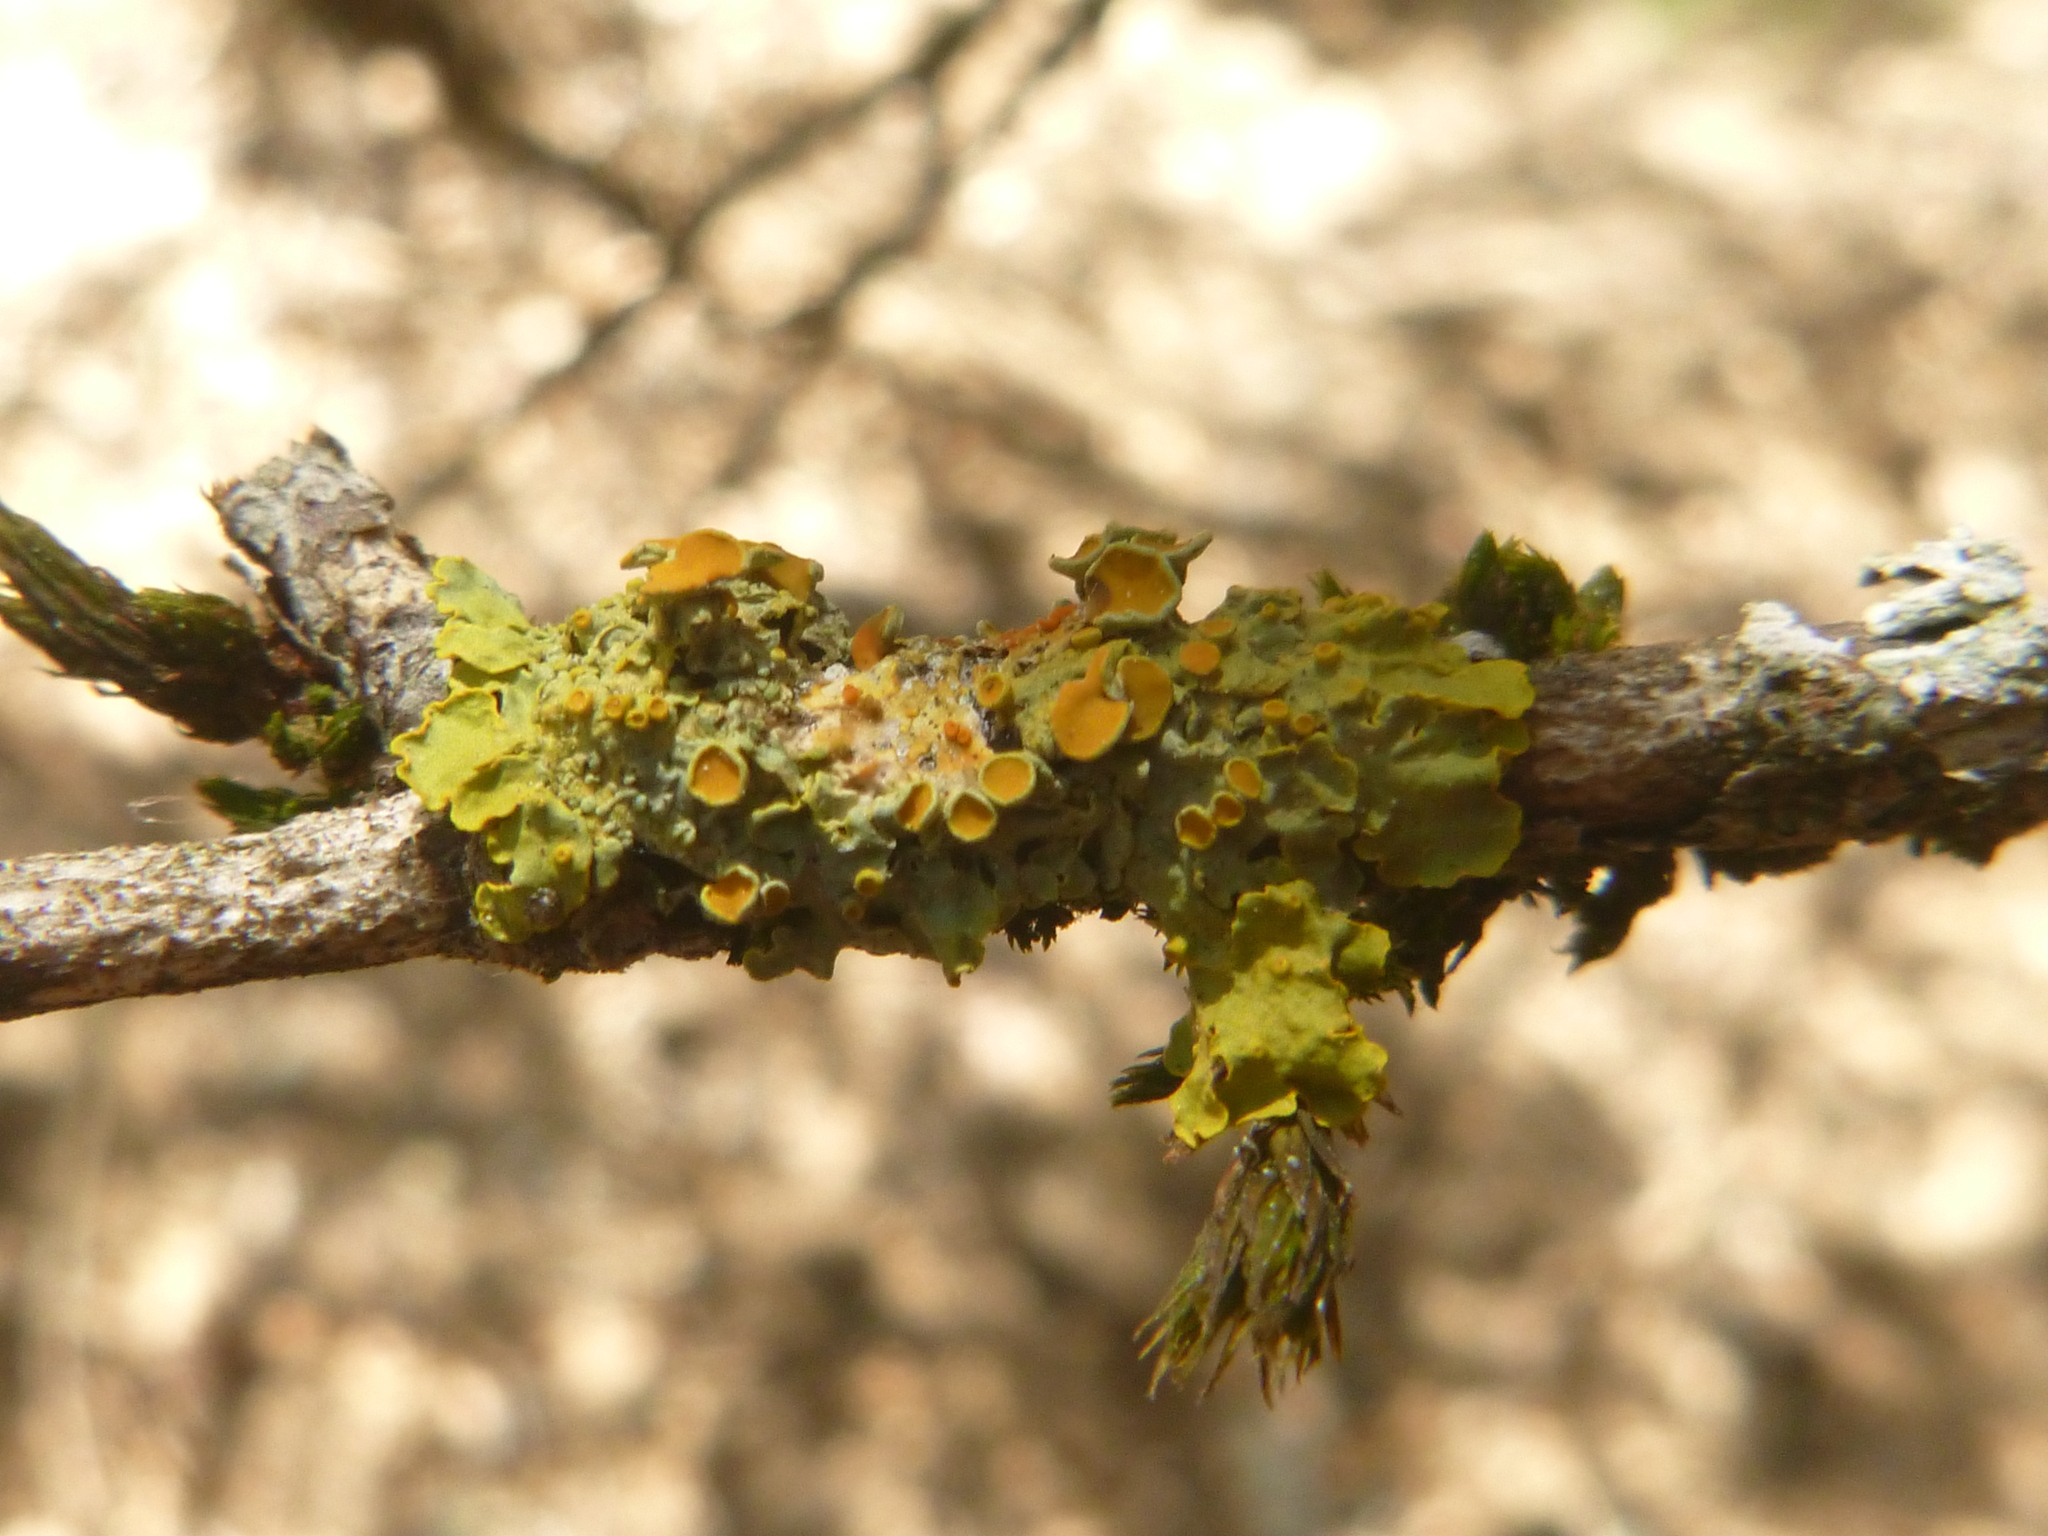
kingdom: Fungi
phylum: Ascomycota
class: Lecanoromycetes
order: Teloschistales
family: Teloschistaceae
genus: Xanthoria
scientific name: Xanthoria parietina
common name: Common orange lichen
